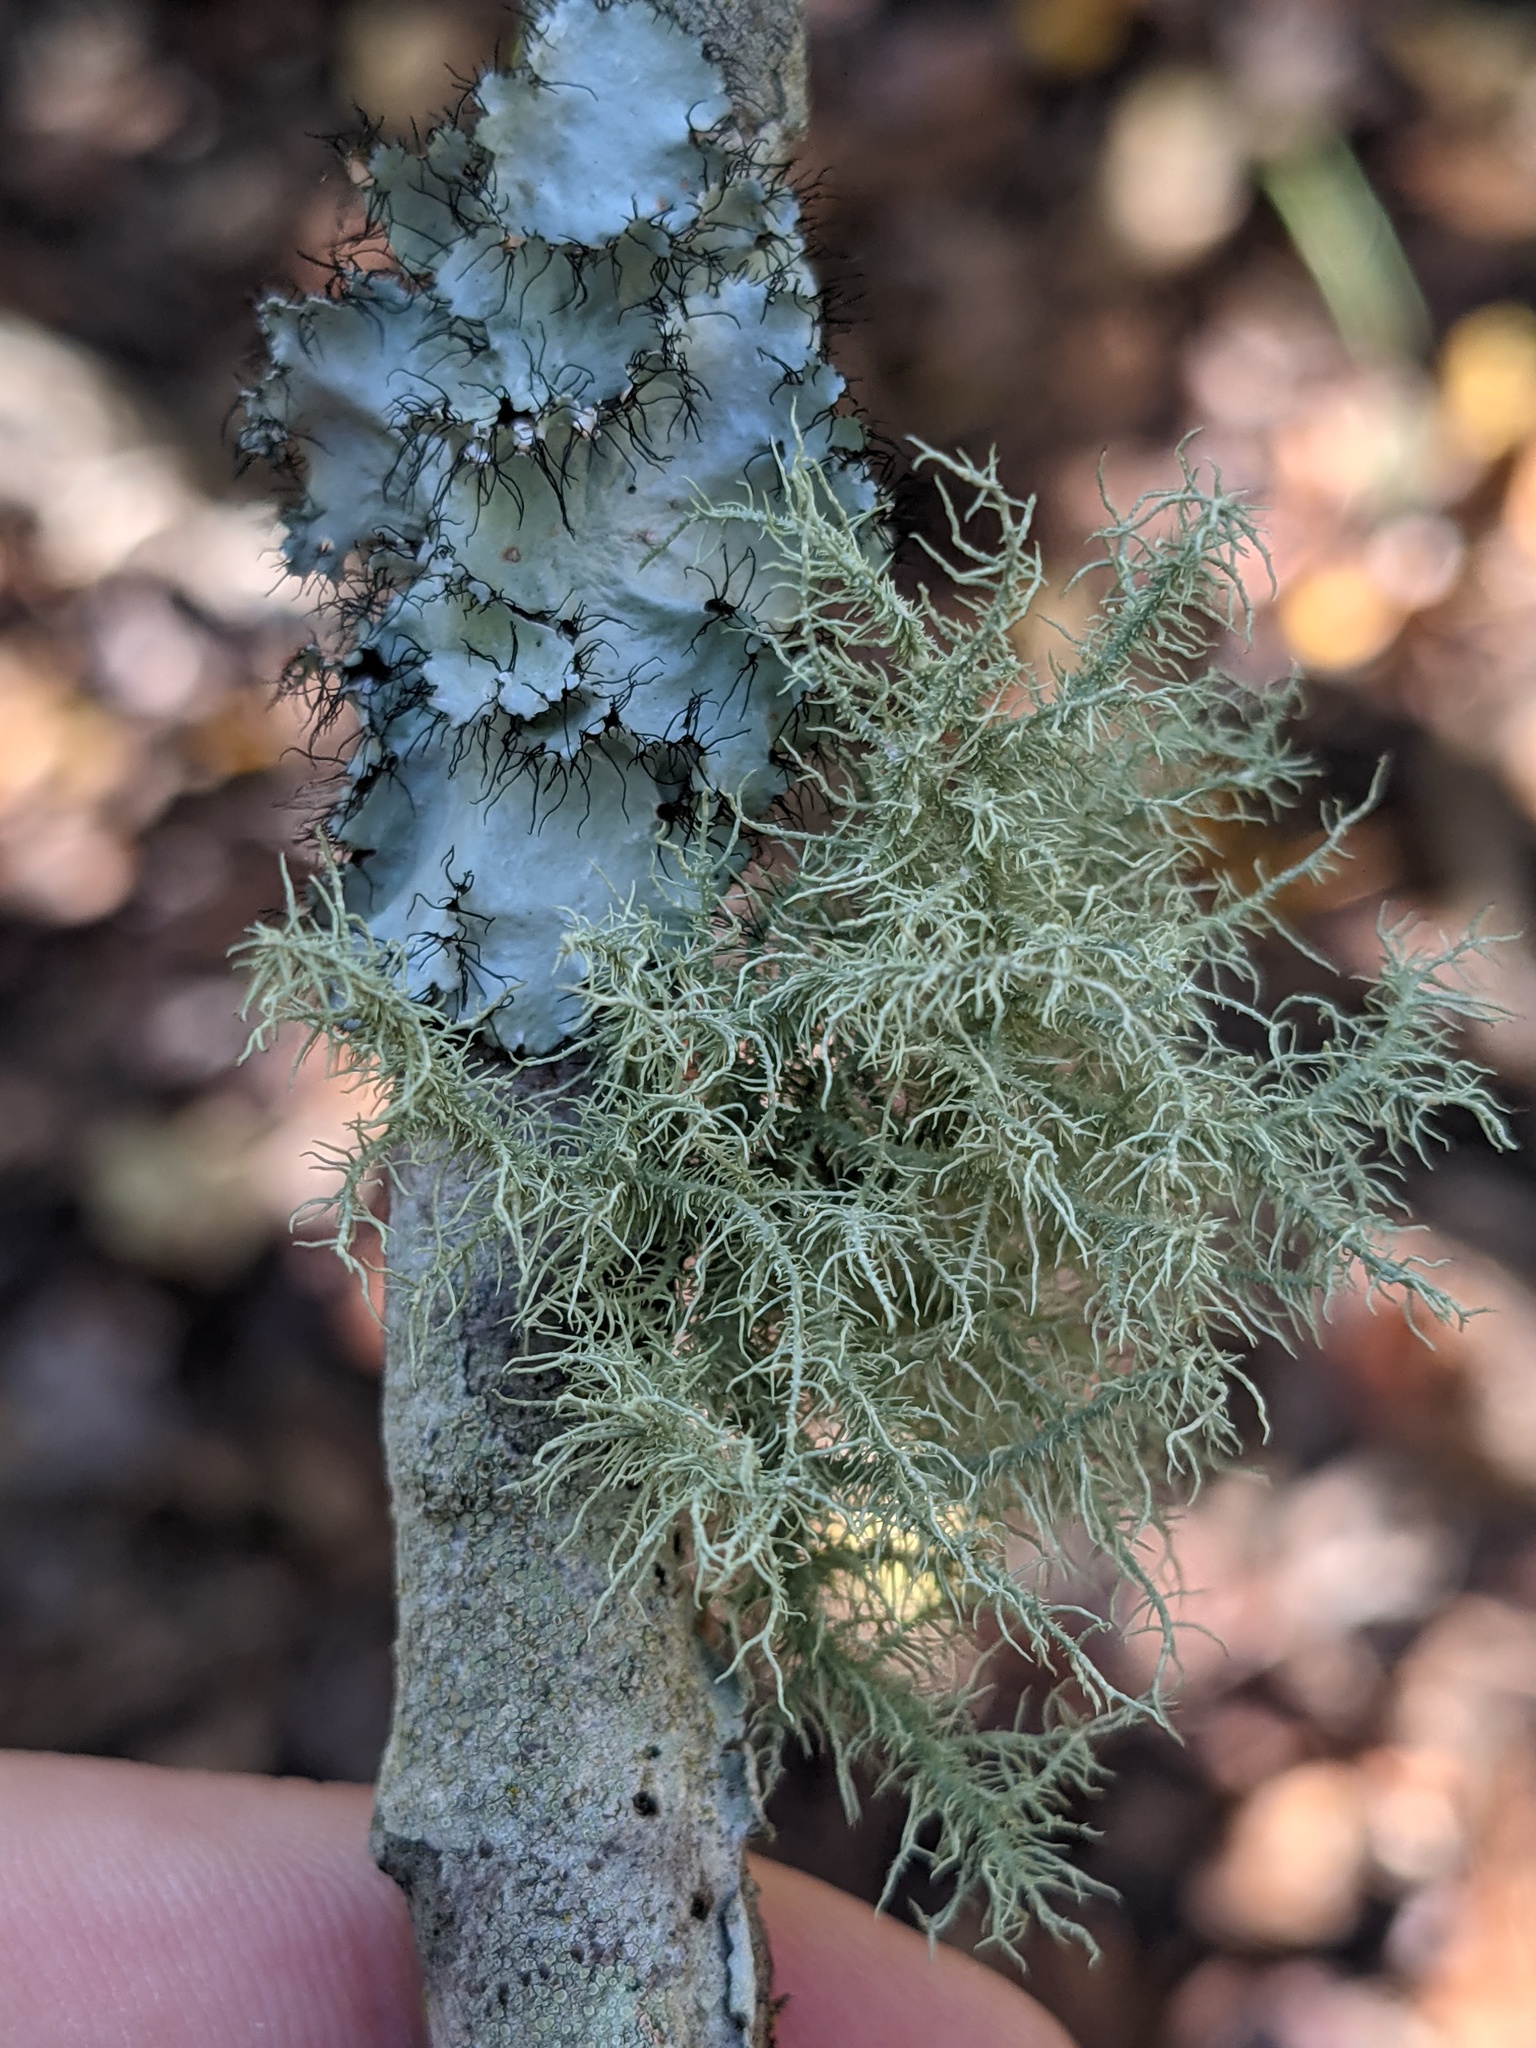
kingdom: Fungi
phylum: Ascomycota
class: Lecanoromycetes
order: Lecanorales
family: Parmeliaceae
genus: Usnea
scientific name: Usnea strigosa
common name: Bushy beard lichen
